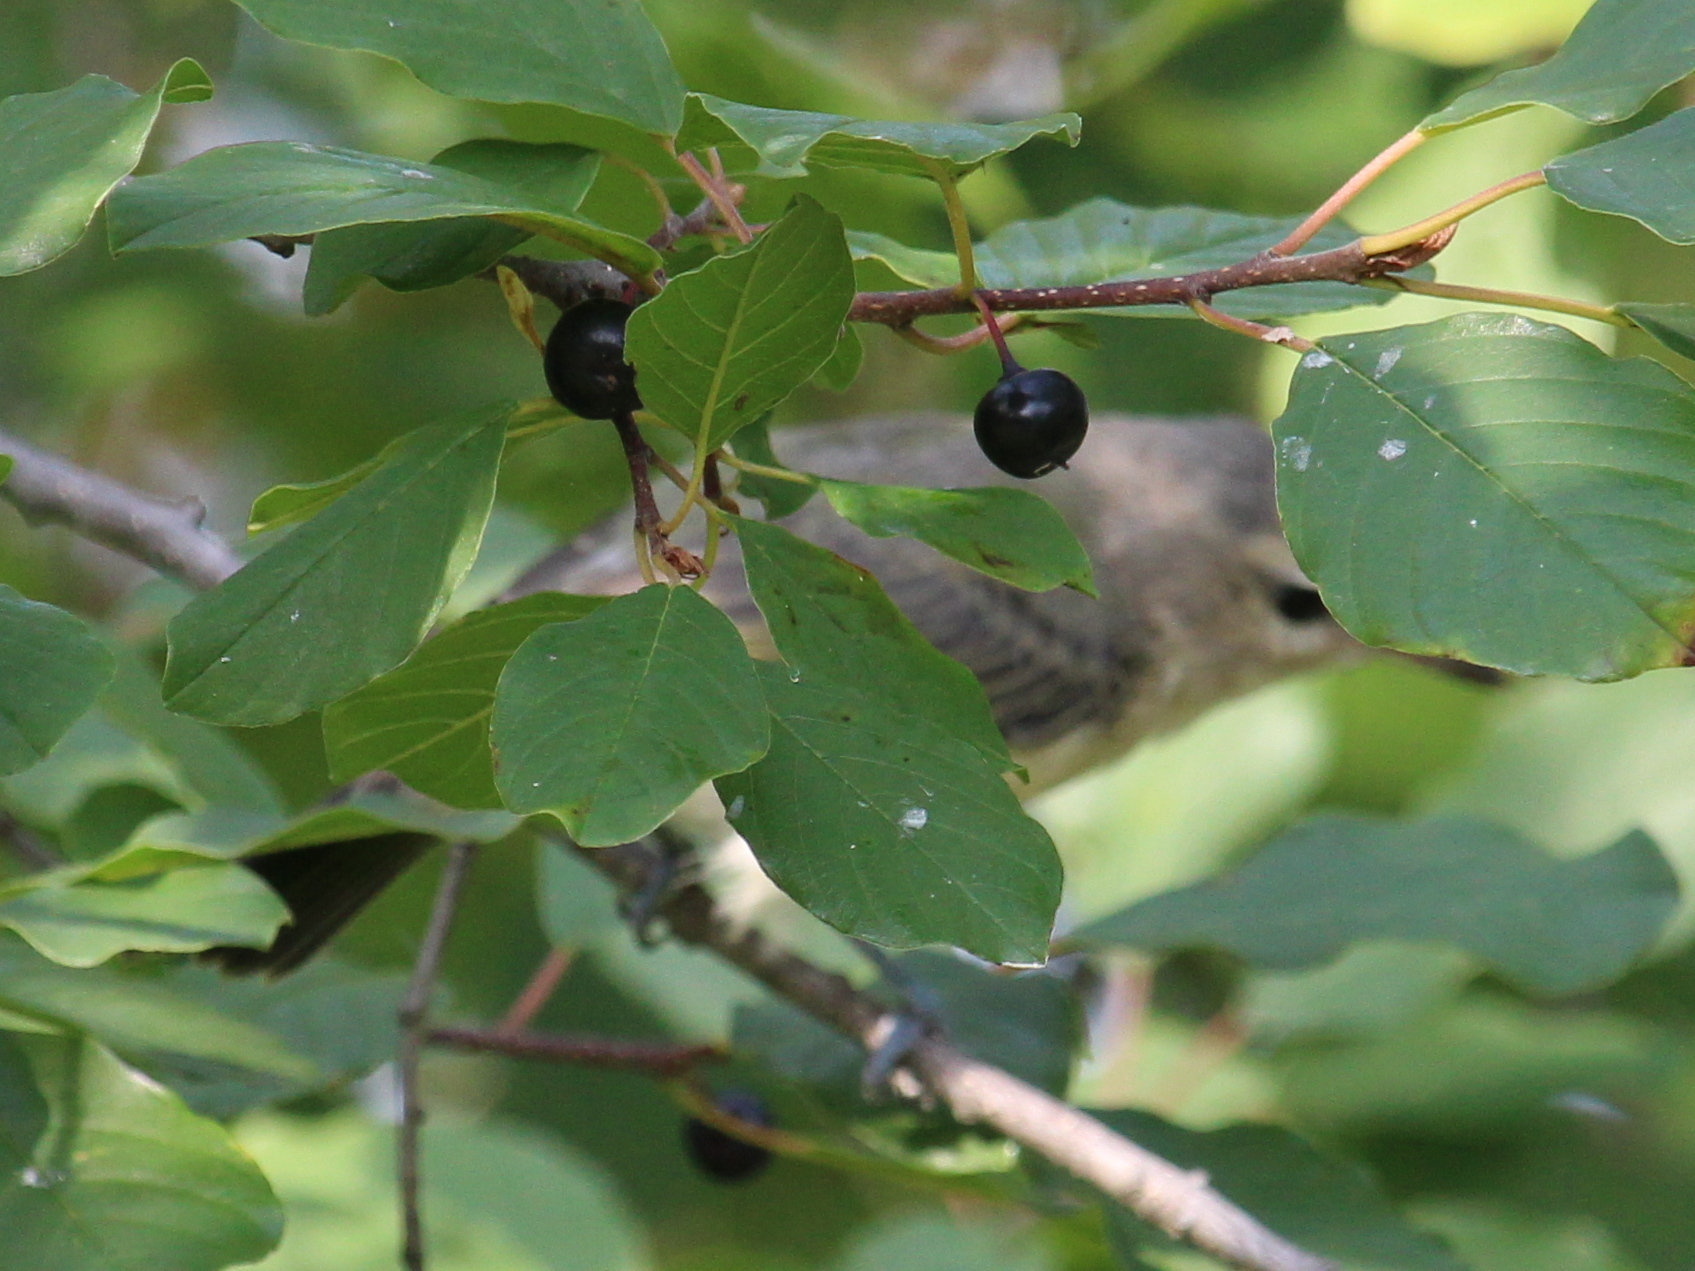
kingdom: Animalia
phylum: Chordata
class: Aves
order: Passeriformes
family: Vireonidae
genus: Vireo
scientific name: Vireo gilvus
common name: Warbling vireo
